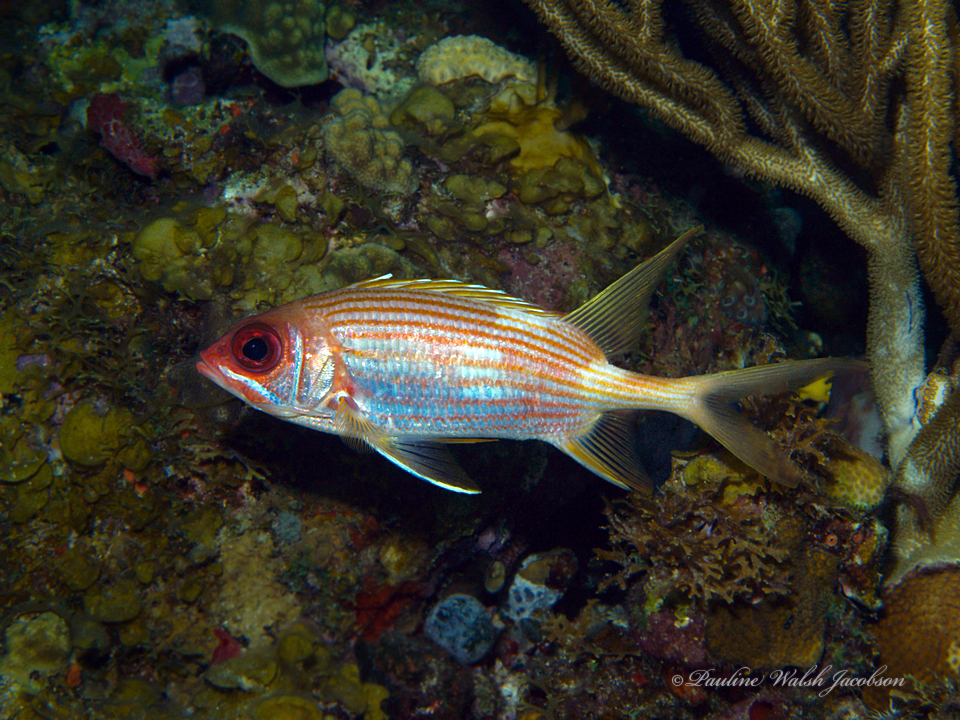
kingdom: Animalia
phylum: Chordata
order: Beryciformes
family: Holocentridae
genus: Holocentrus
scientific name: Holocentrus rufus
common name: Longspine squirrelfish
